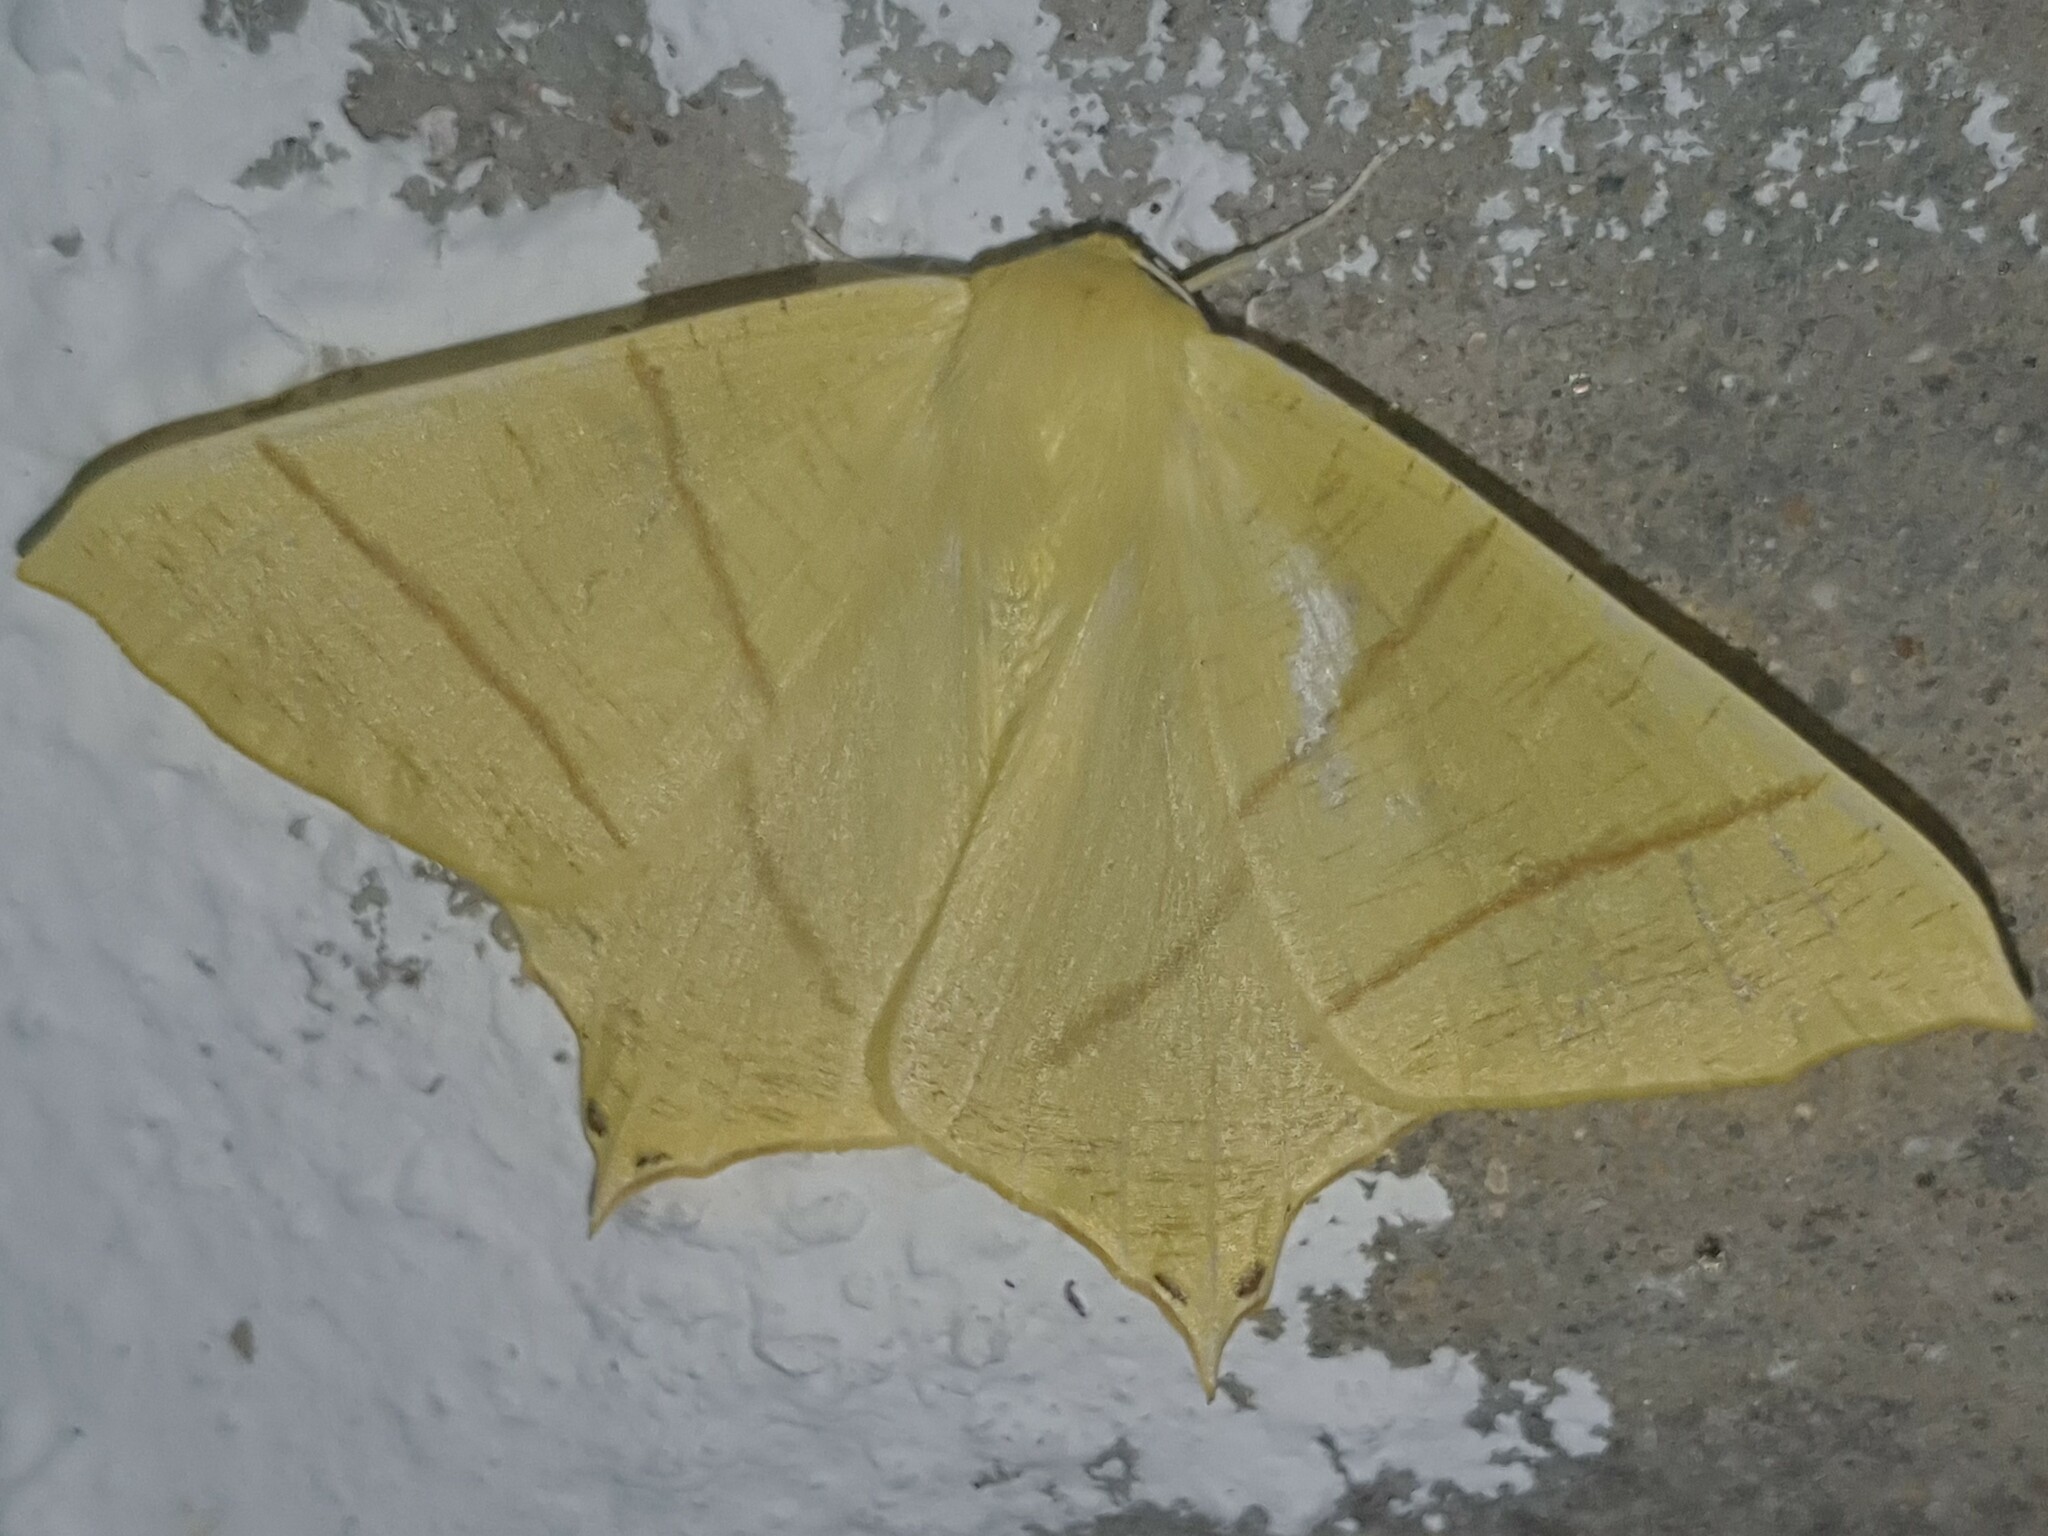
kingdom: Animalia
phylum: Arthropoda
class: Insecta
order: Lepidoptera
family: Geometridae
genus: Ourapteryx
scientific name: Ourapteryx sambucaria
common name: Swallow-tailed moth
